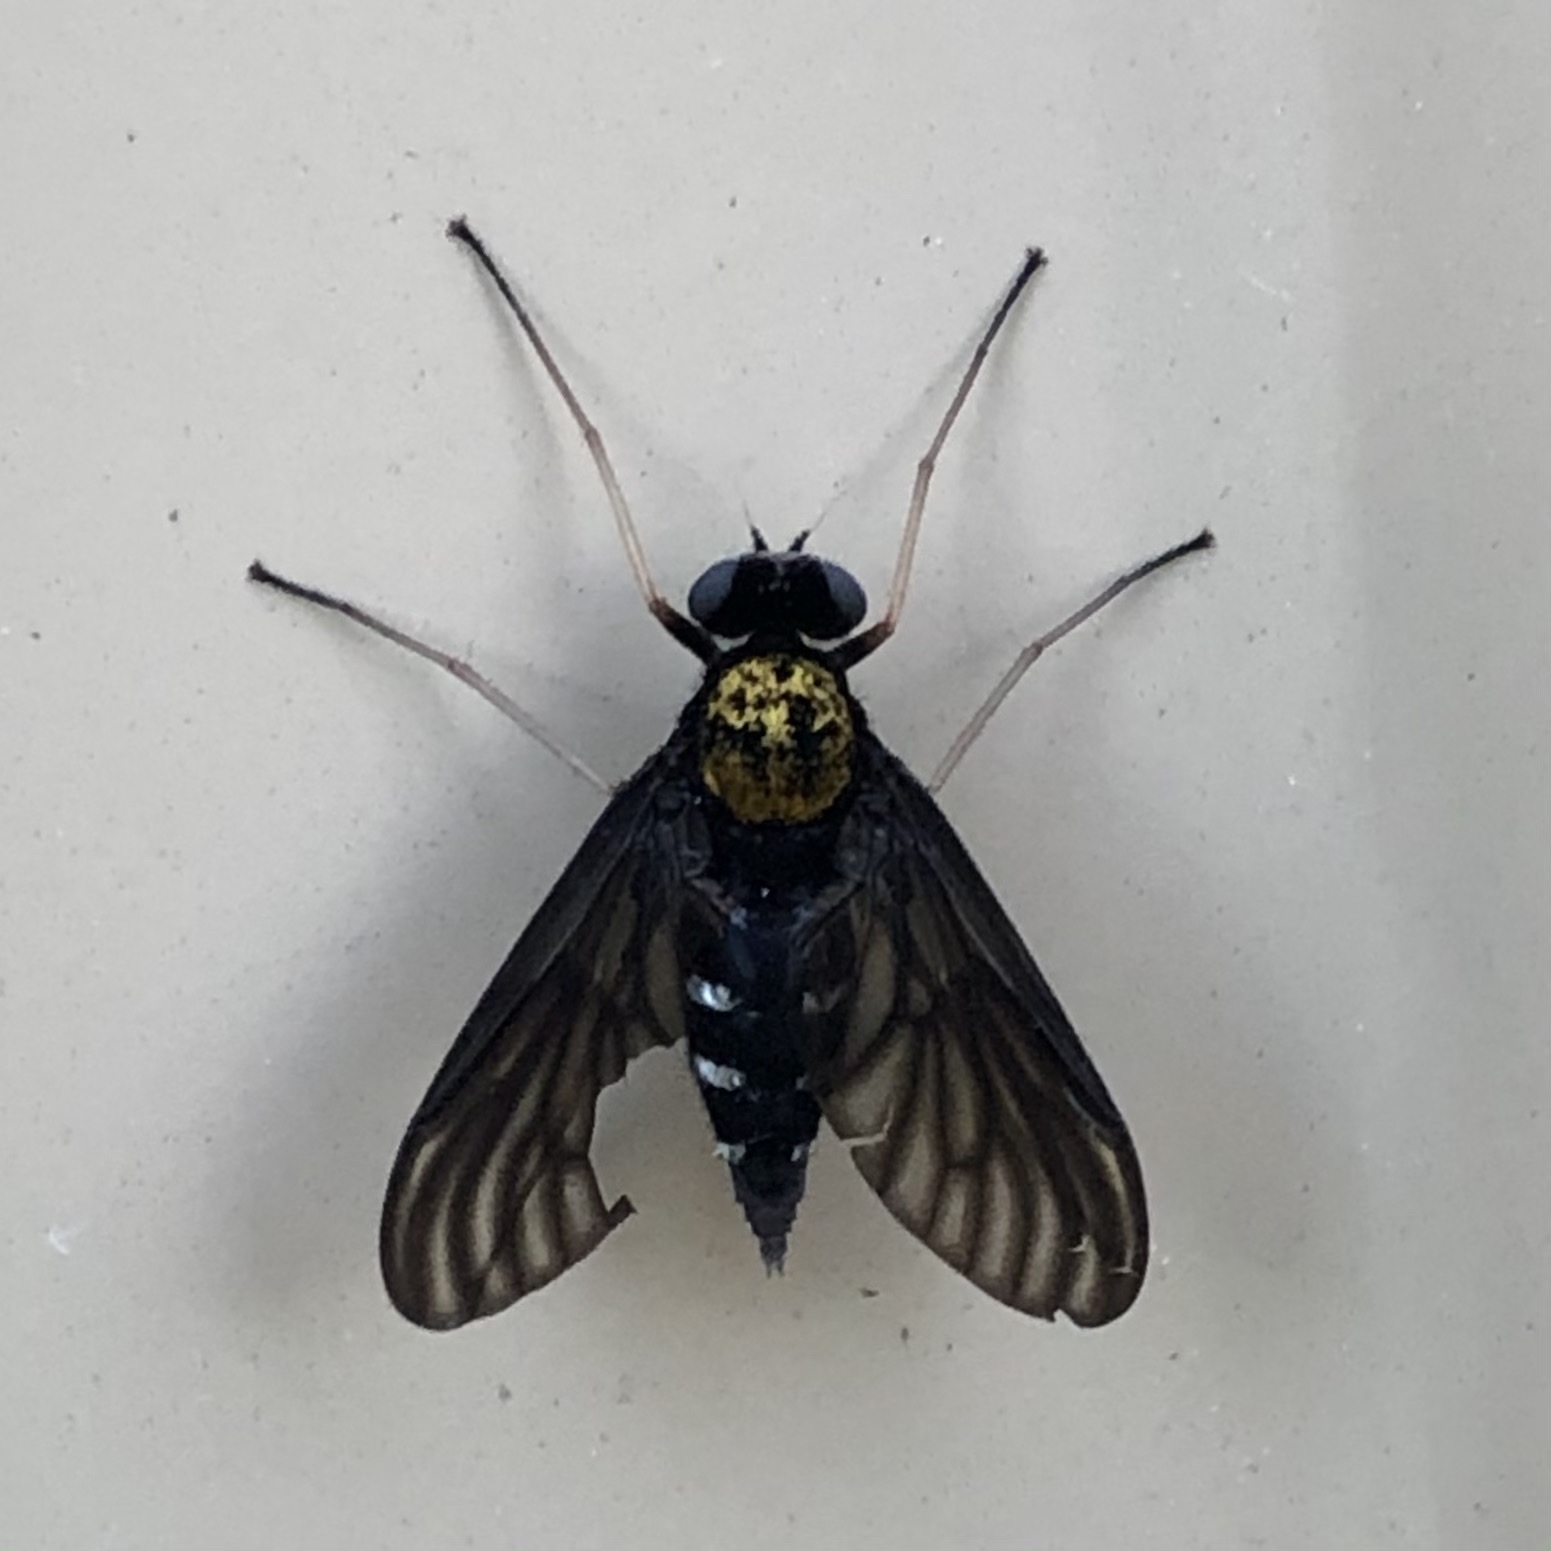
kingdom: Animalia
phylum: Arthropoda
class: Insecta
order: Diptera
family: Rhagionidae
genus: Chrysopilus
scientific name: Chrysopilus thoracicus
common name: Golden-backed snipe fly
